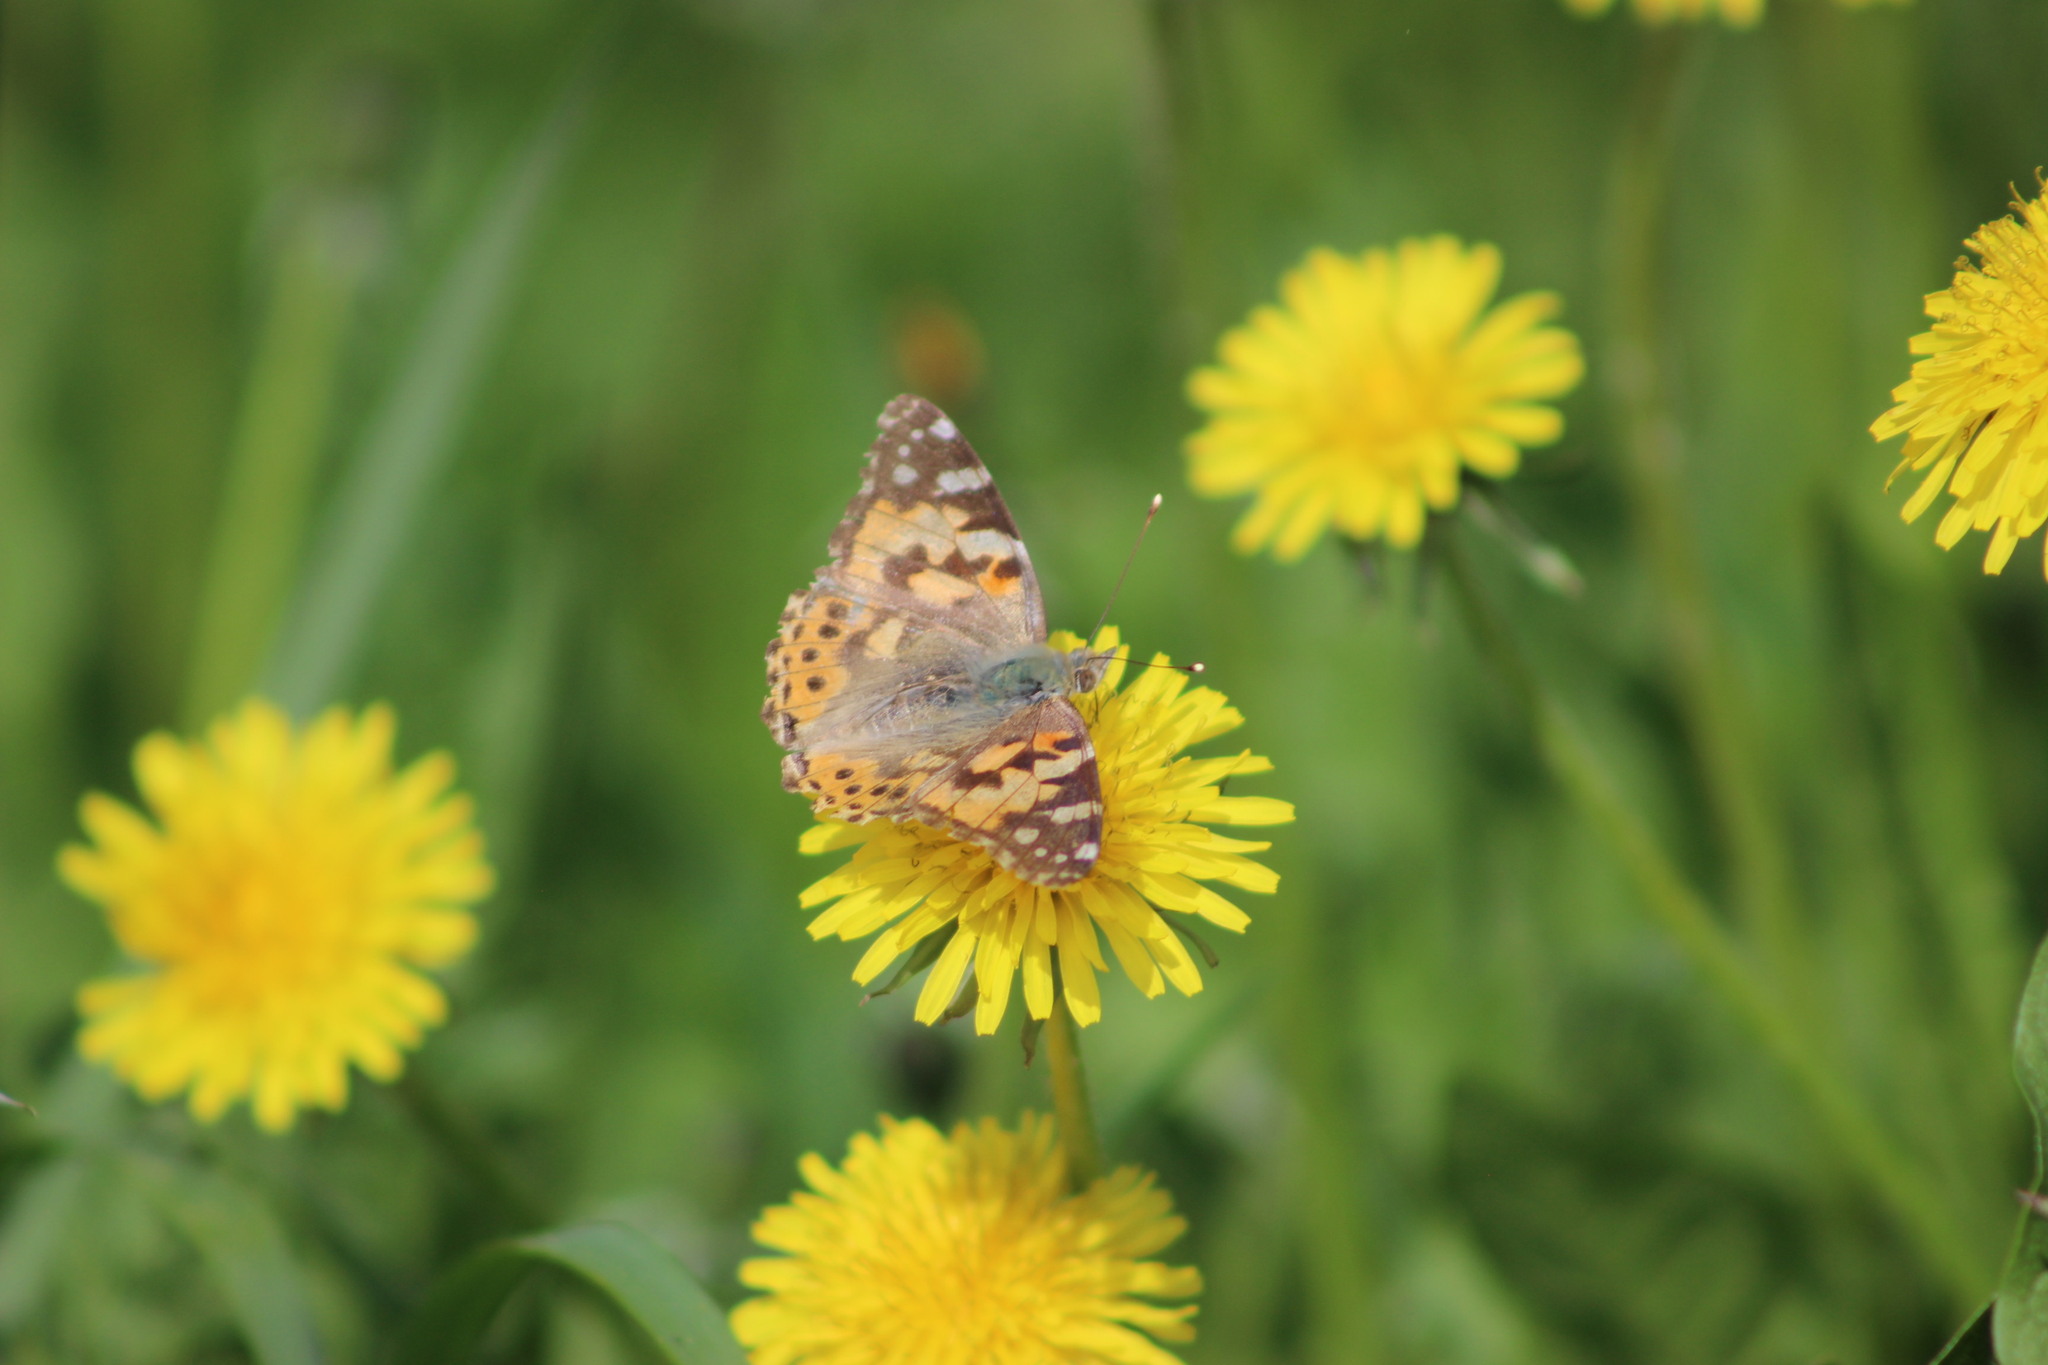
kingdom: Animalia
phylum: Arthropoda
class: Insecta
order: Lepidoptera
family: Nymphalidae
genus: Vanessa
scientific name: Vanessa cardui
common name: Painted lady
